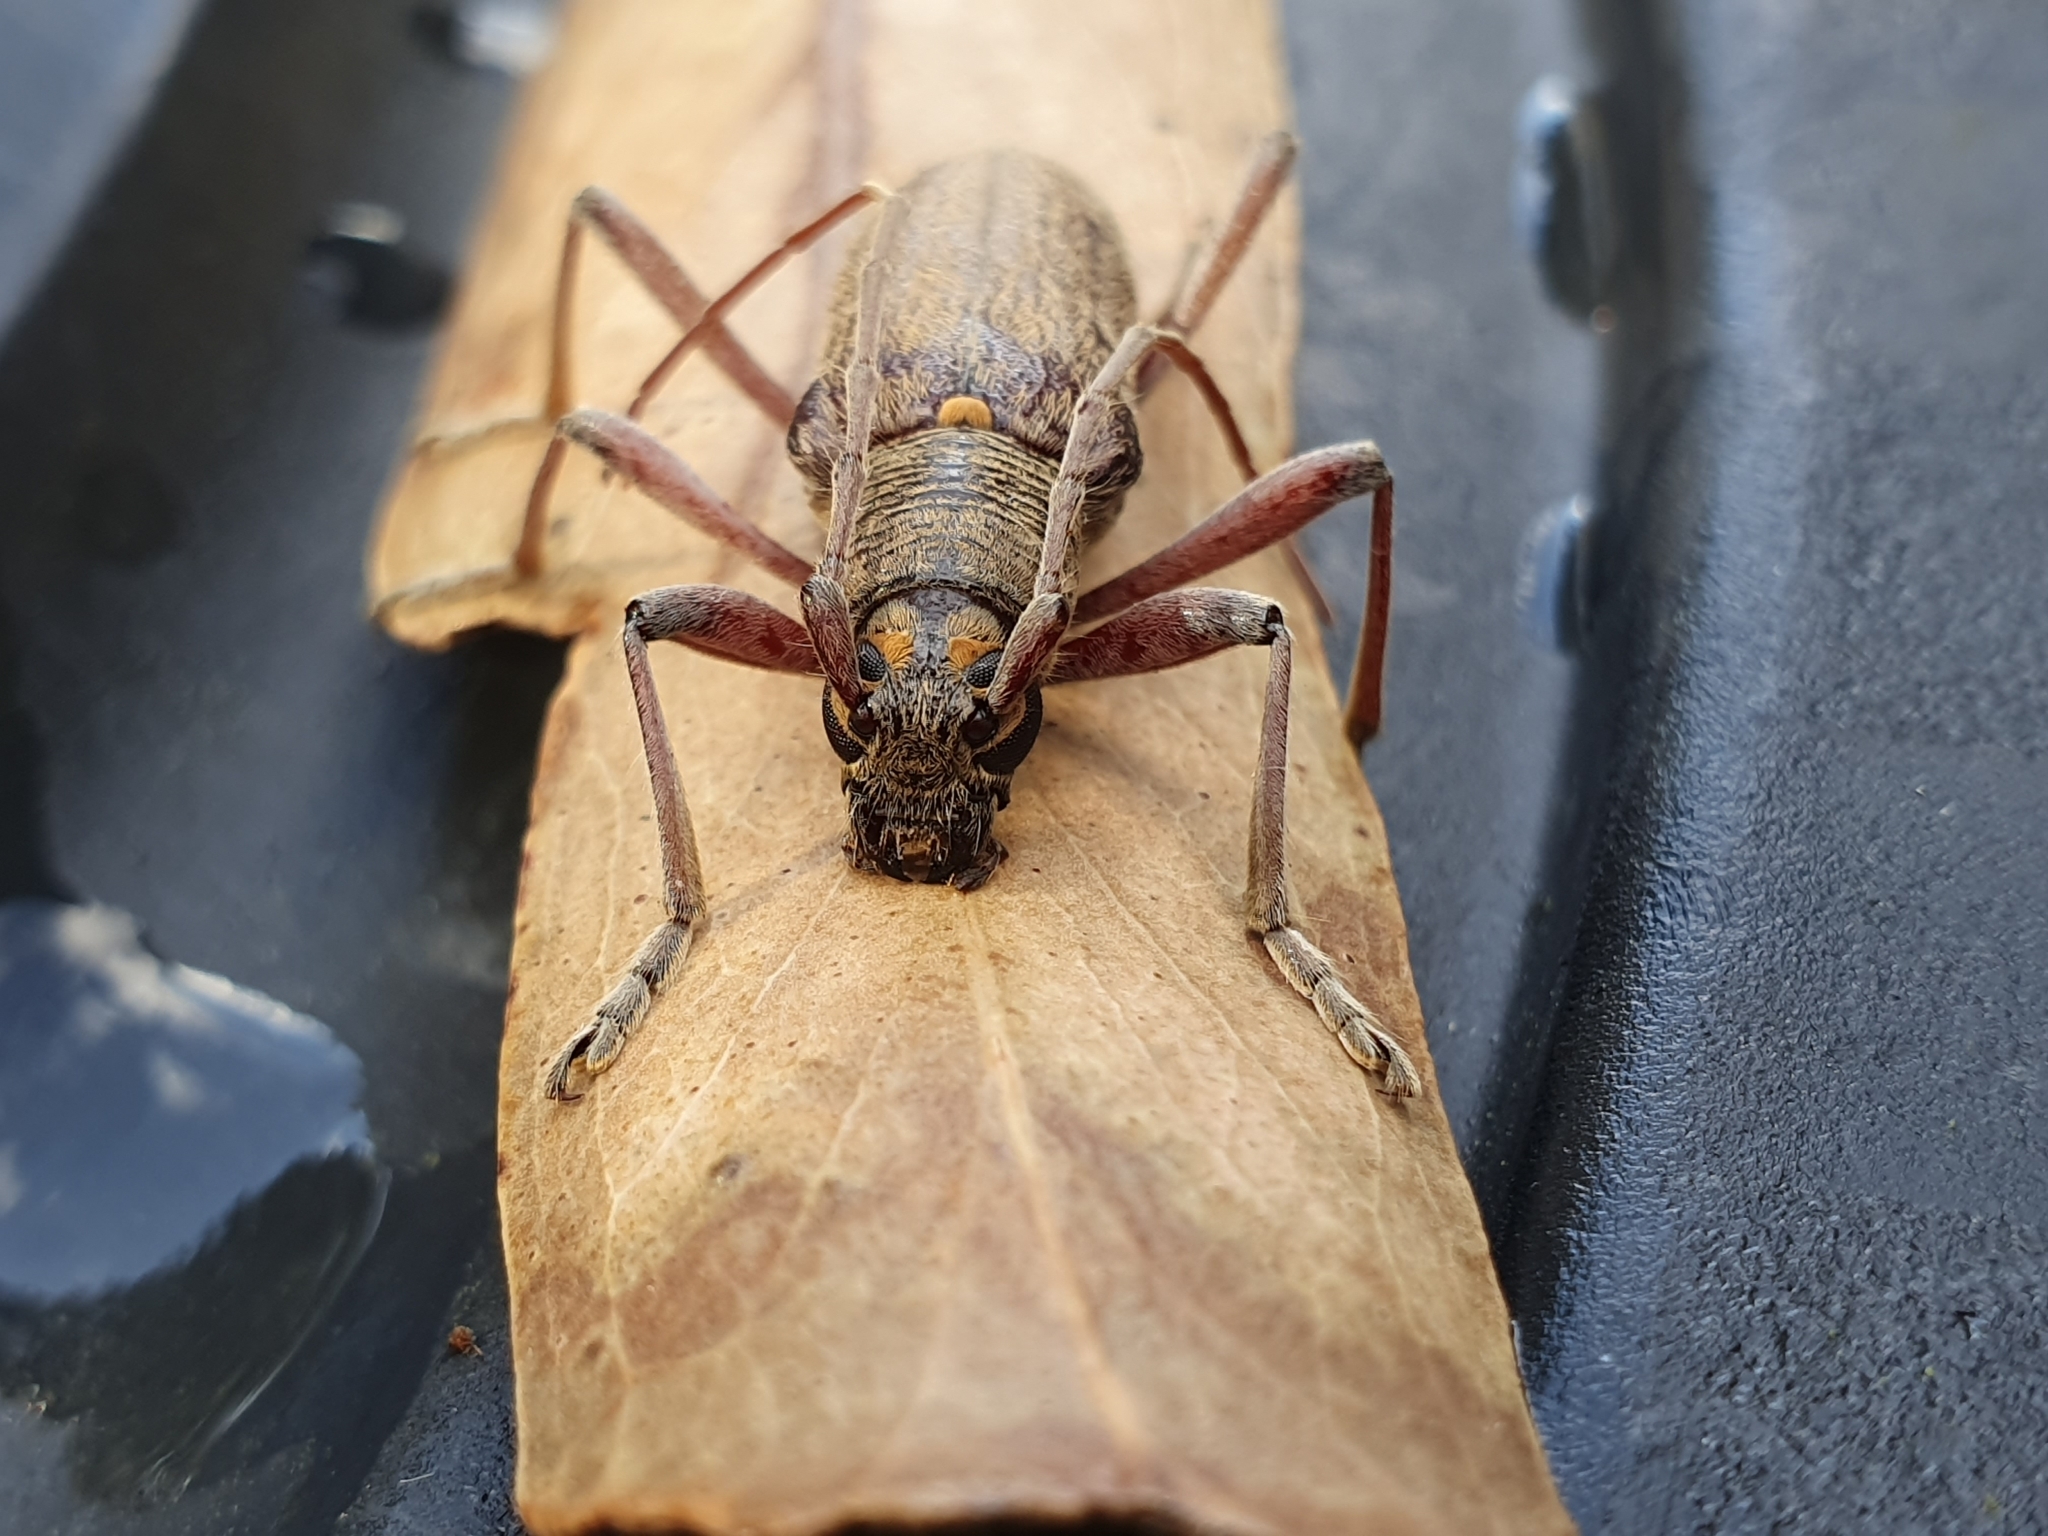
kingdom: Animalia
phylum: Arthropoda
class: Insecta
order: Coleoptera
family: Cerambycidae
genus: Oemona
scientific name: Oemona hirta
